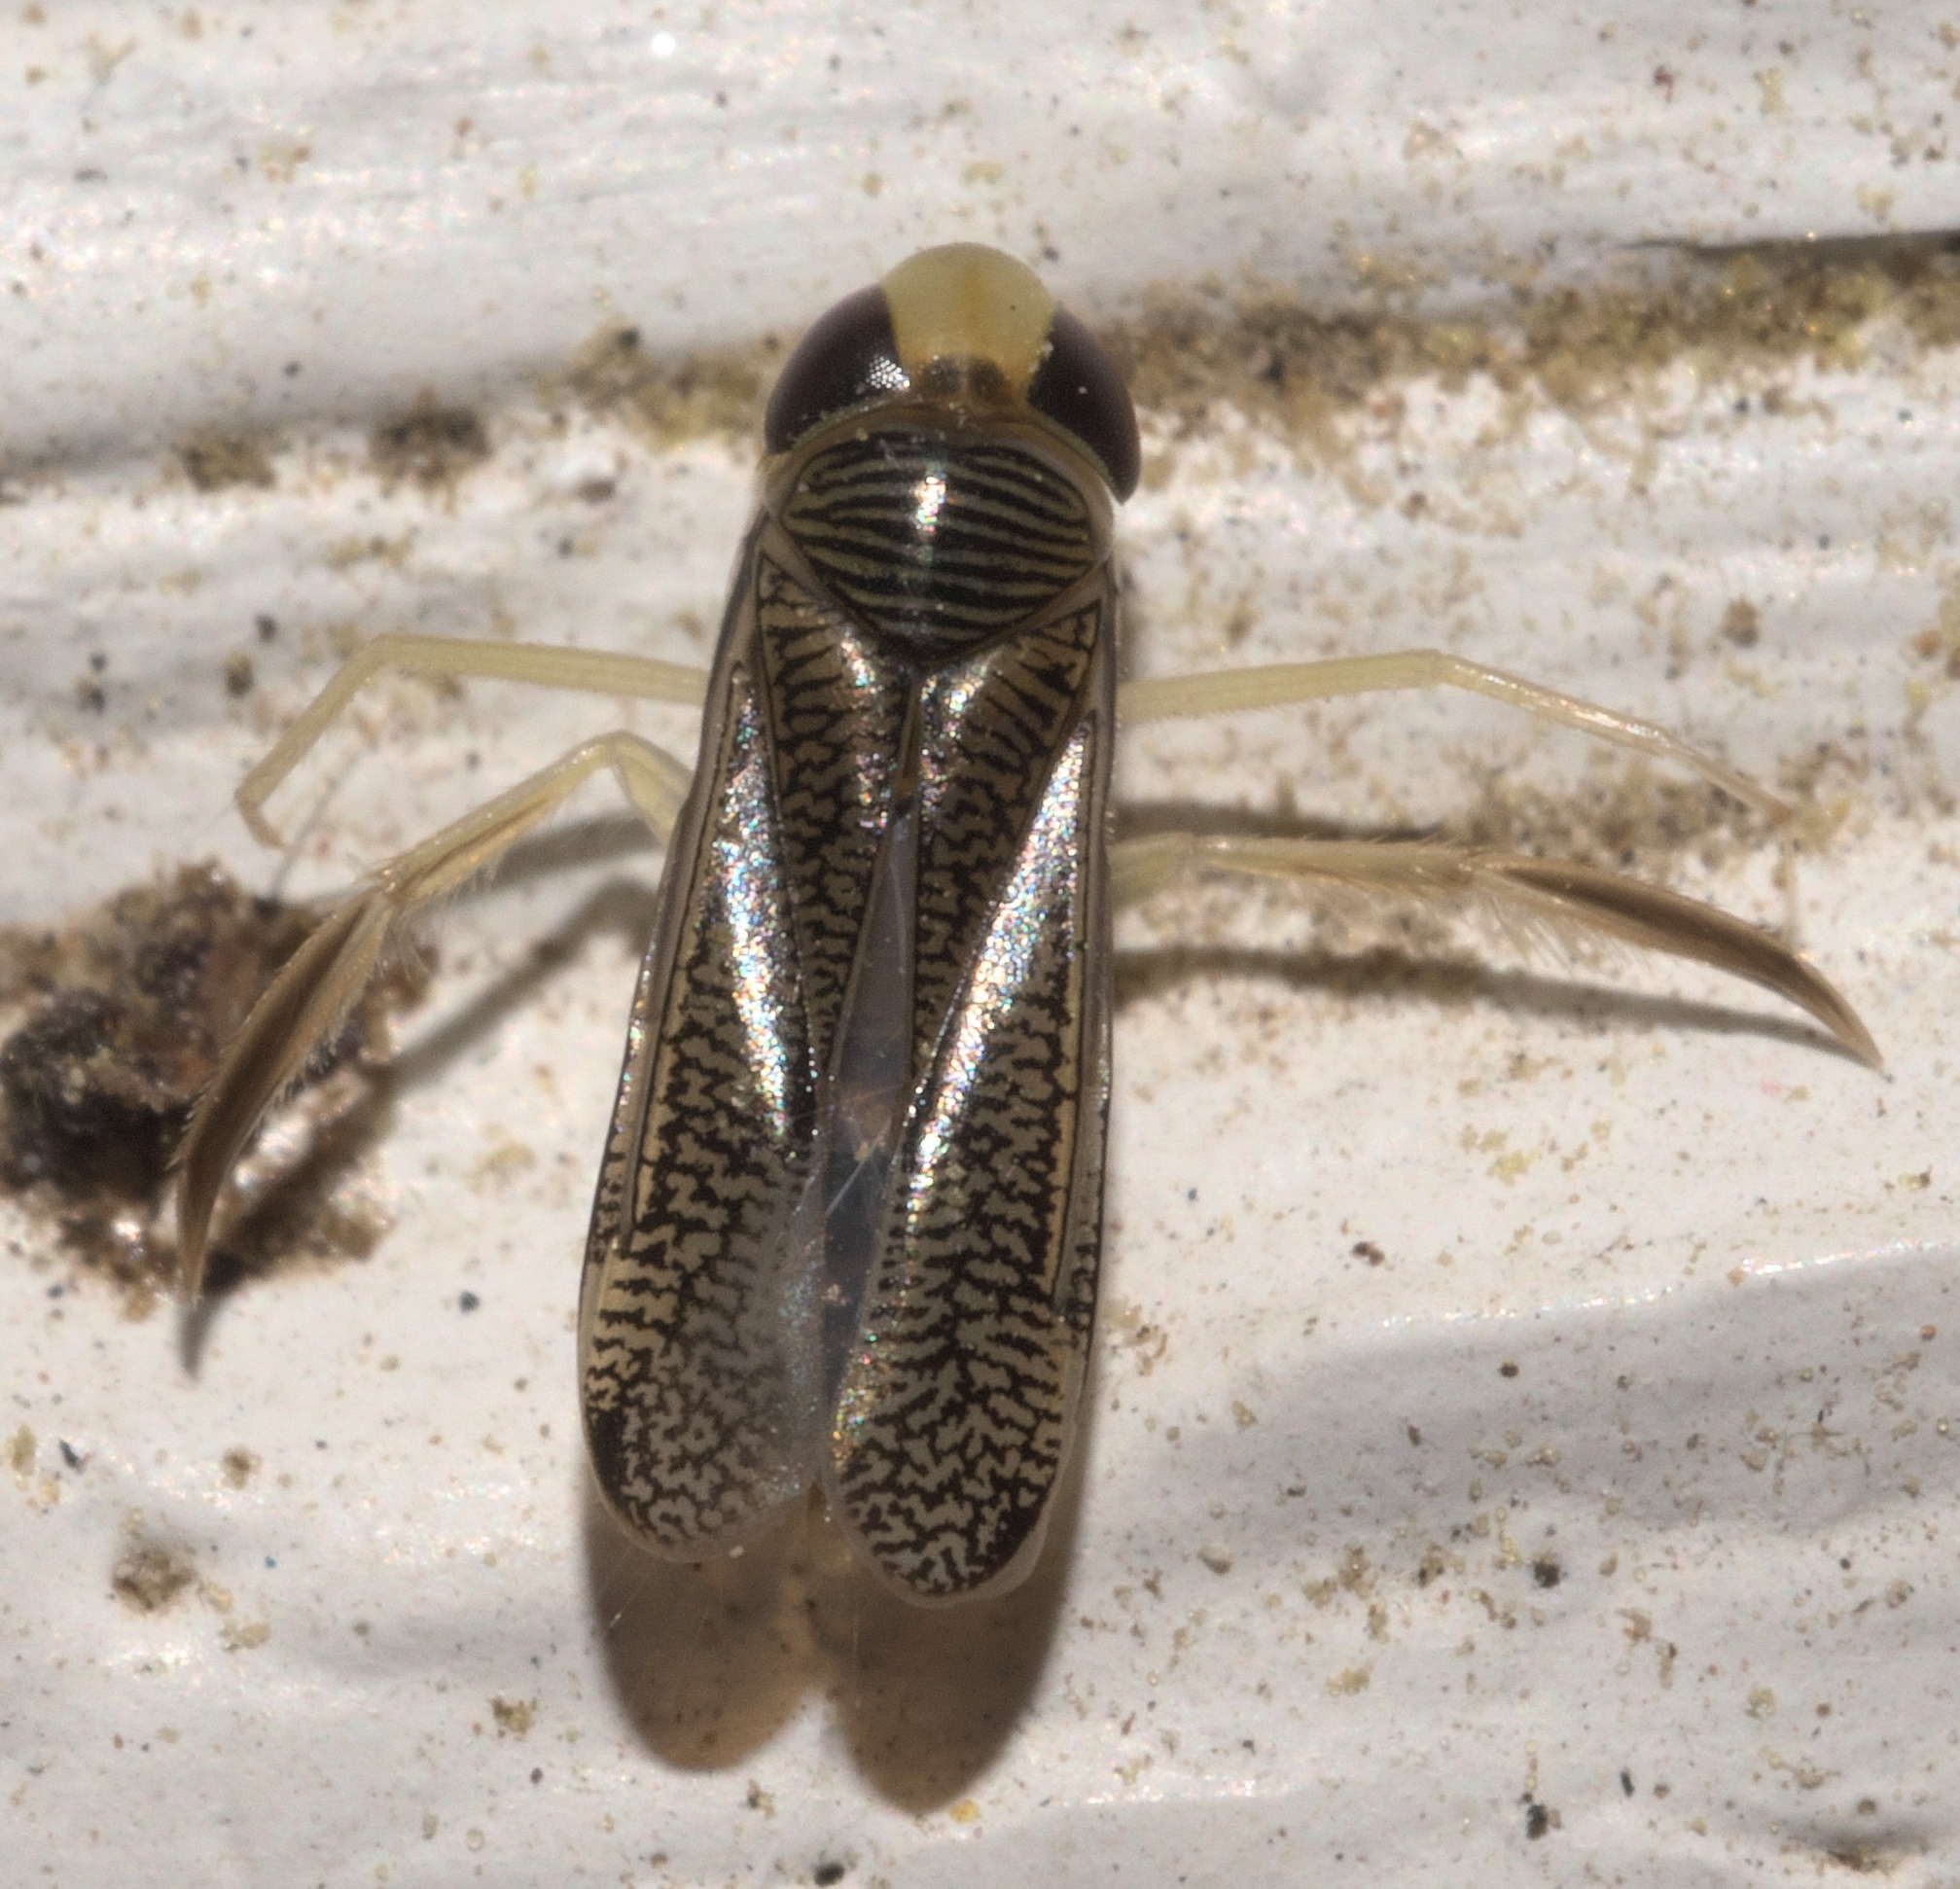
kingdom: Animalia
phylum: Arthropoda
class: Insecta
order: Hemiptera
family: Corixidae
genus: Trichocorixa
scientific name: Trichocorixa
